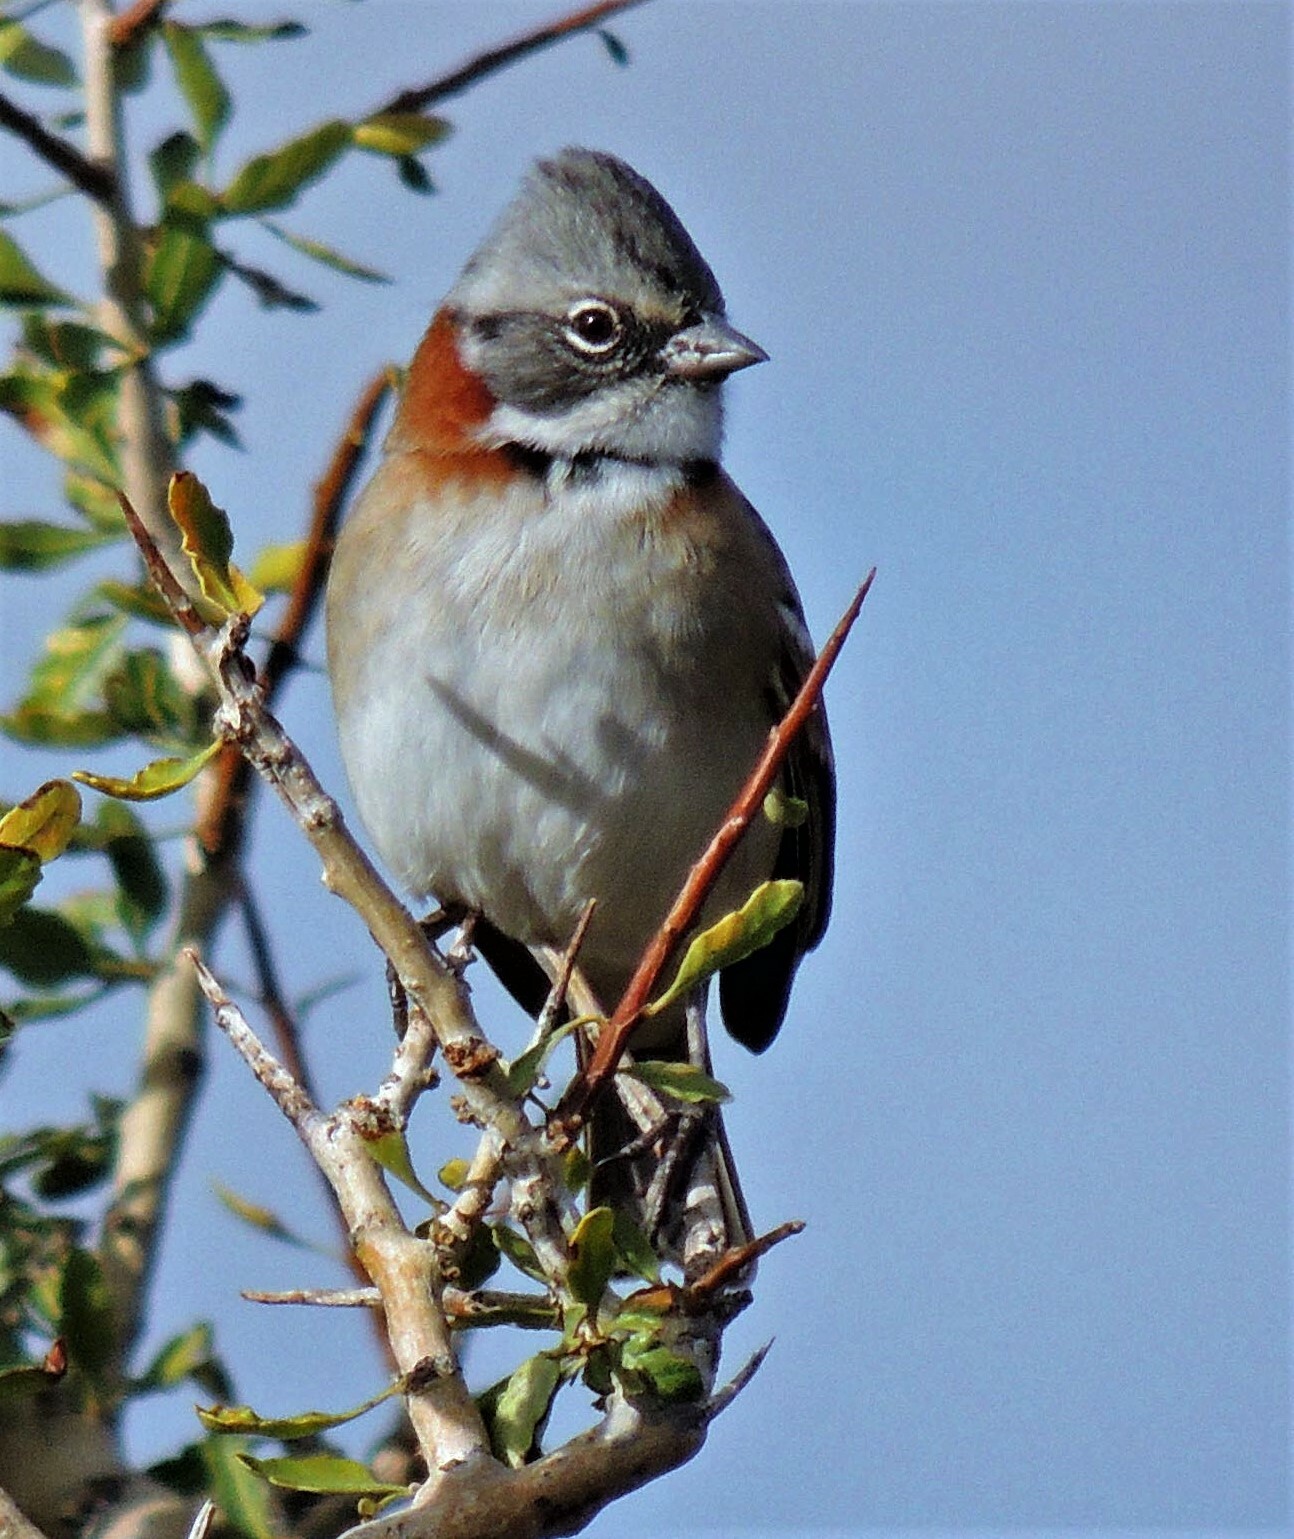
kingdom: Animalia
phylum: Chordata
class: Aves
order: Passeriformes
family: Passerellidae
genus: Zonotrichia
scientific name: Zonotrichia capensis
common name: Rufous-collared sparrow
